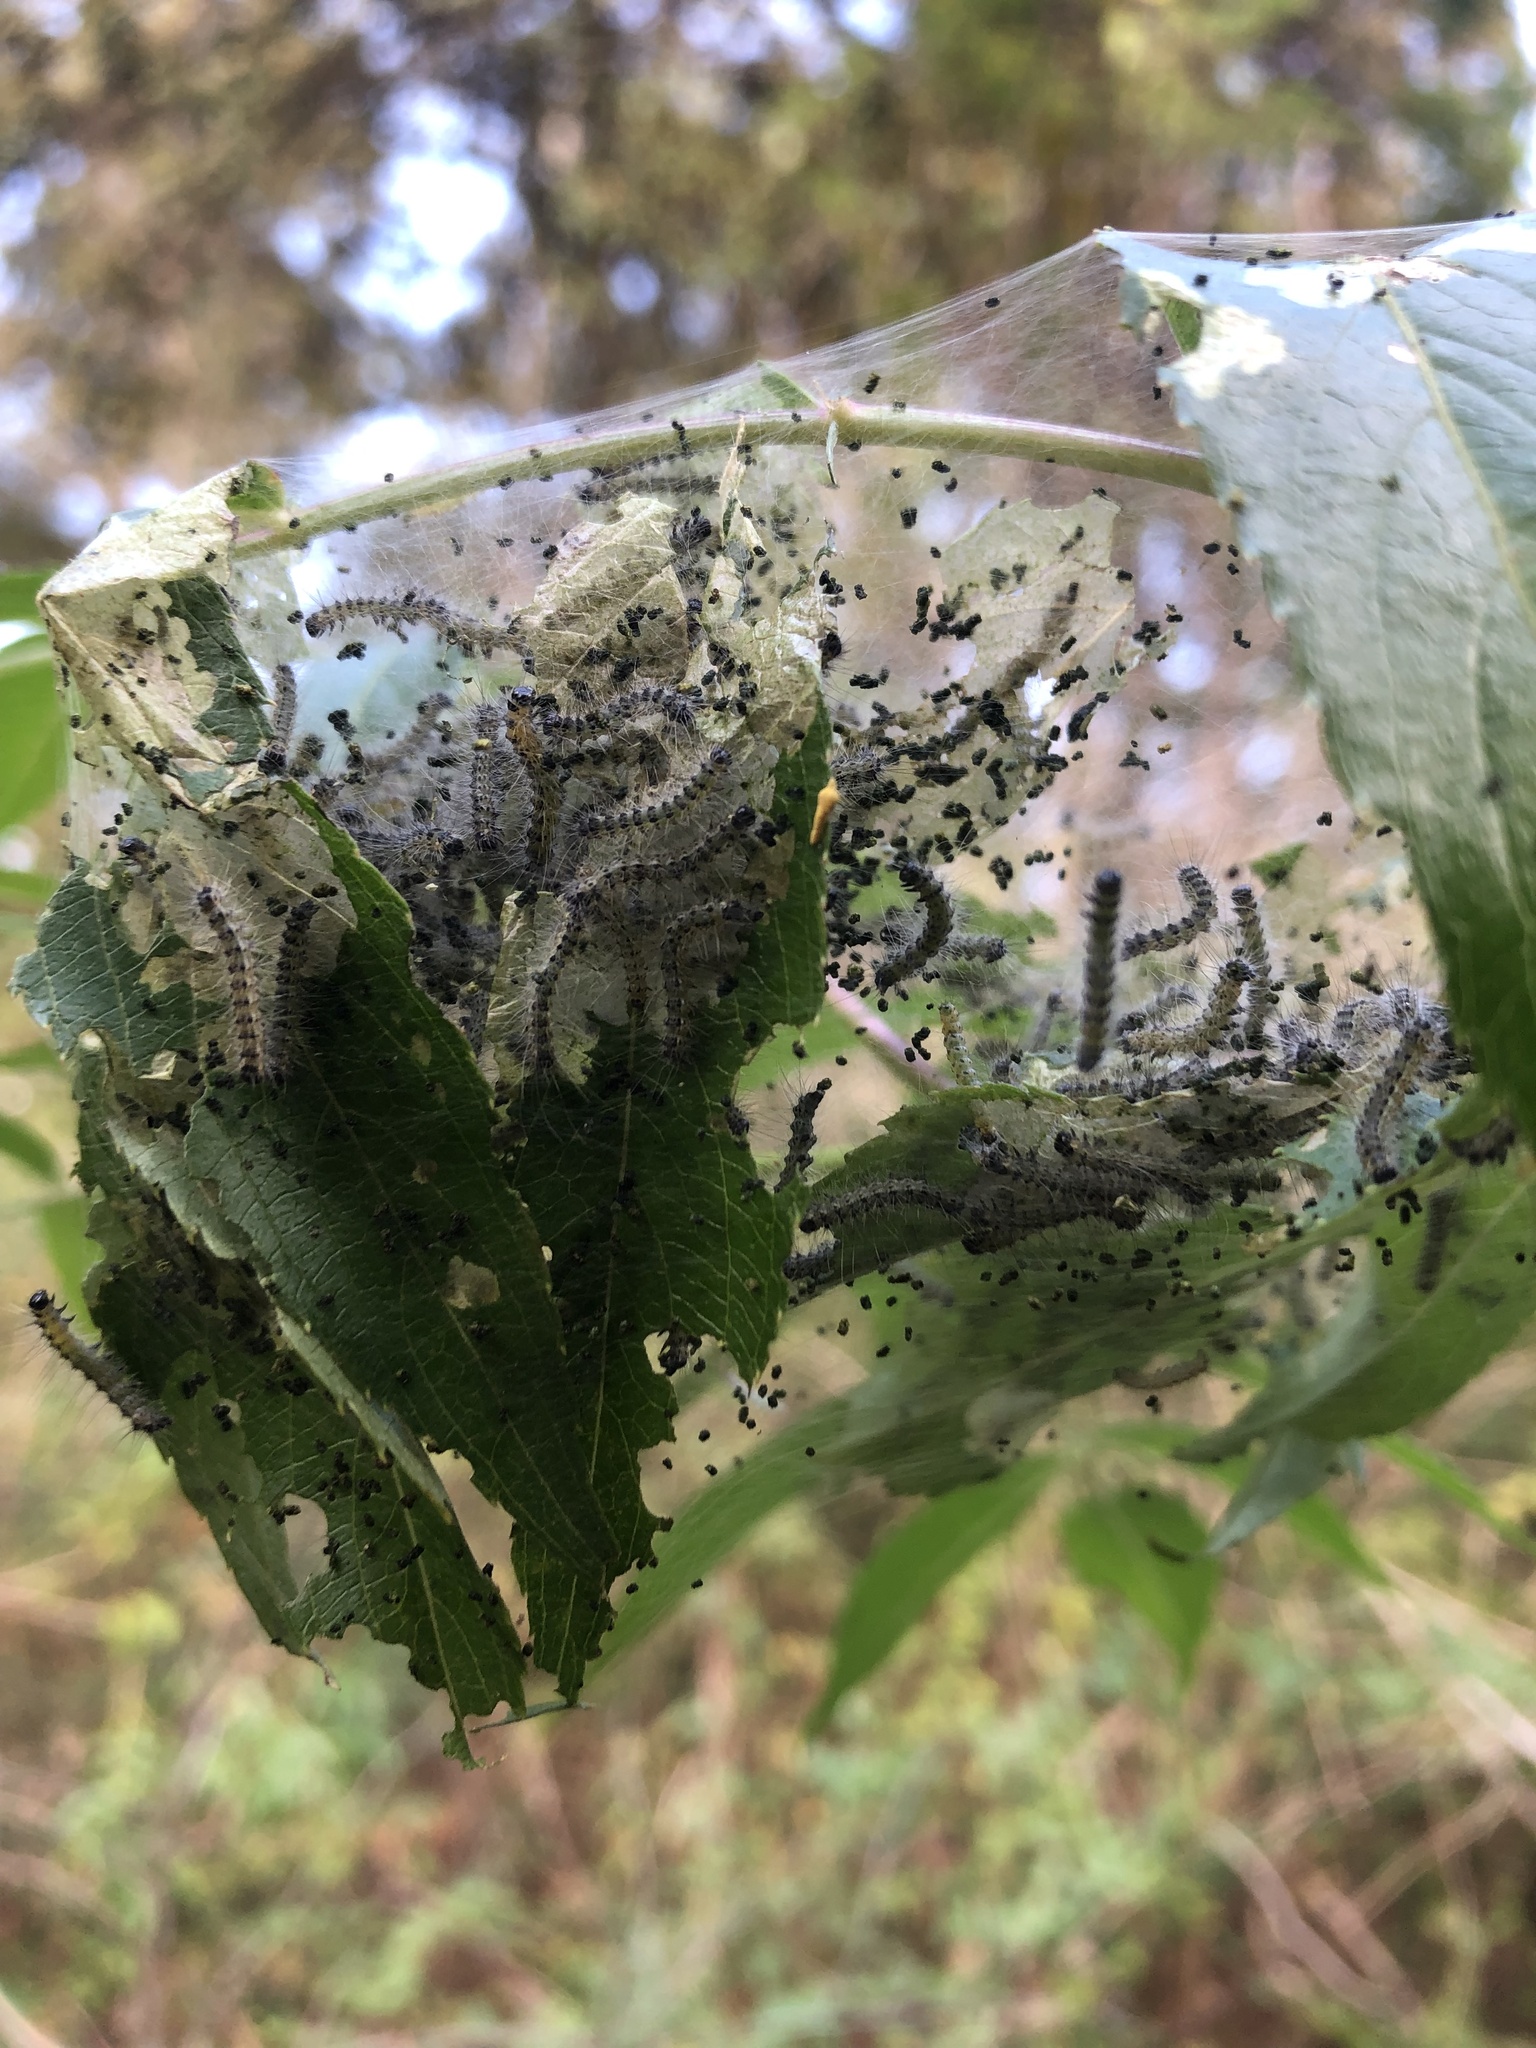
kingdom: Animalia
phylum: Arthropoda
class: Insecta
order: Lepidoptera
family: Erebidae
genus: Hyphantria
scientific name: Hyphantria cunea
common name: American white moth
